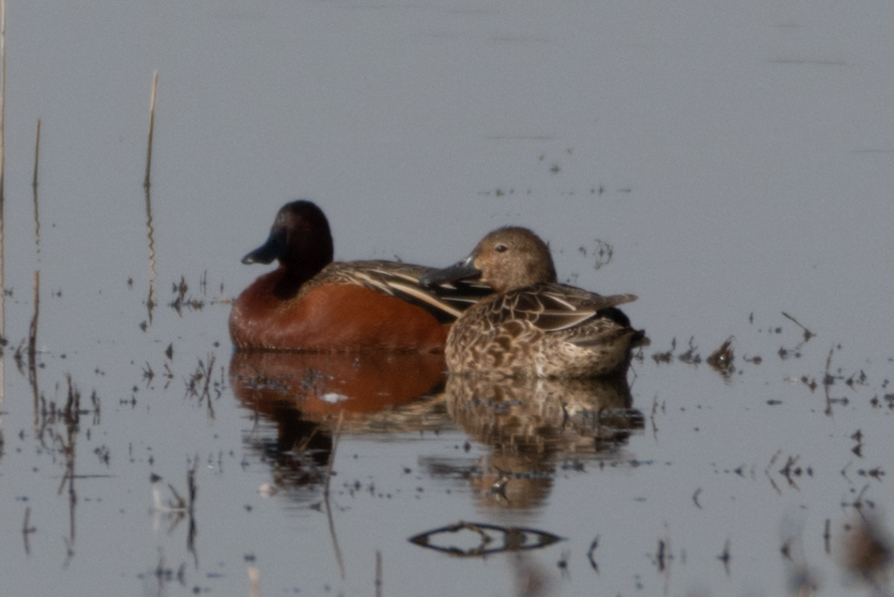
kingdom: Animalia
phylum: Chordata
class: Aves
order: Anseriformes
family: Anatidae
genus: Spatula
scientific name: Spatula cyanoptera
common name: Cinnamon teal
